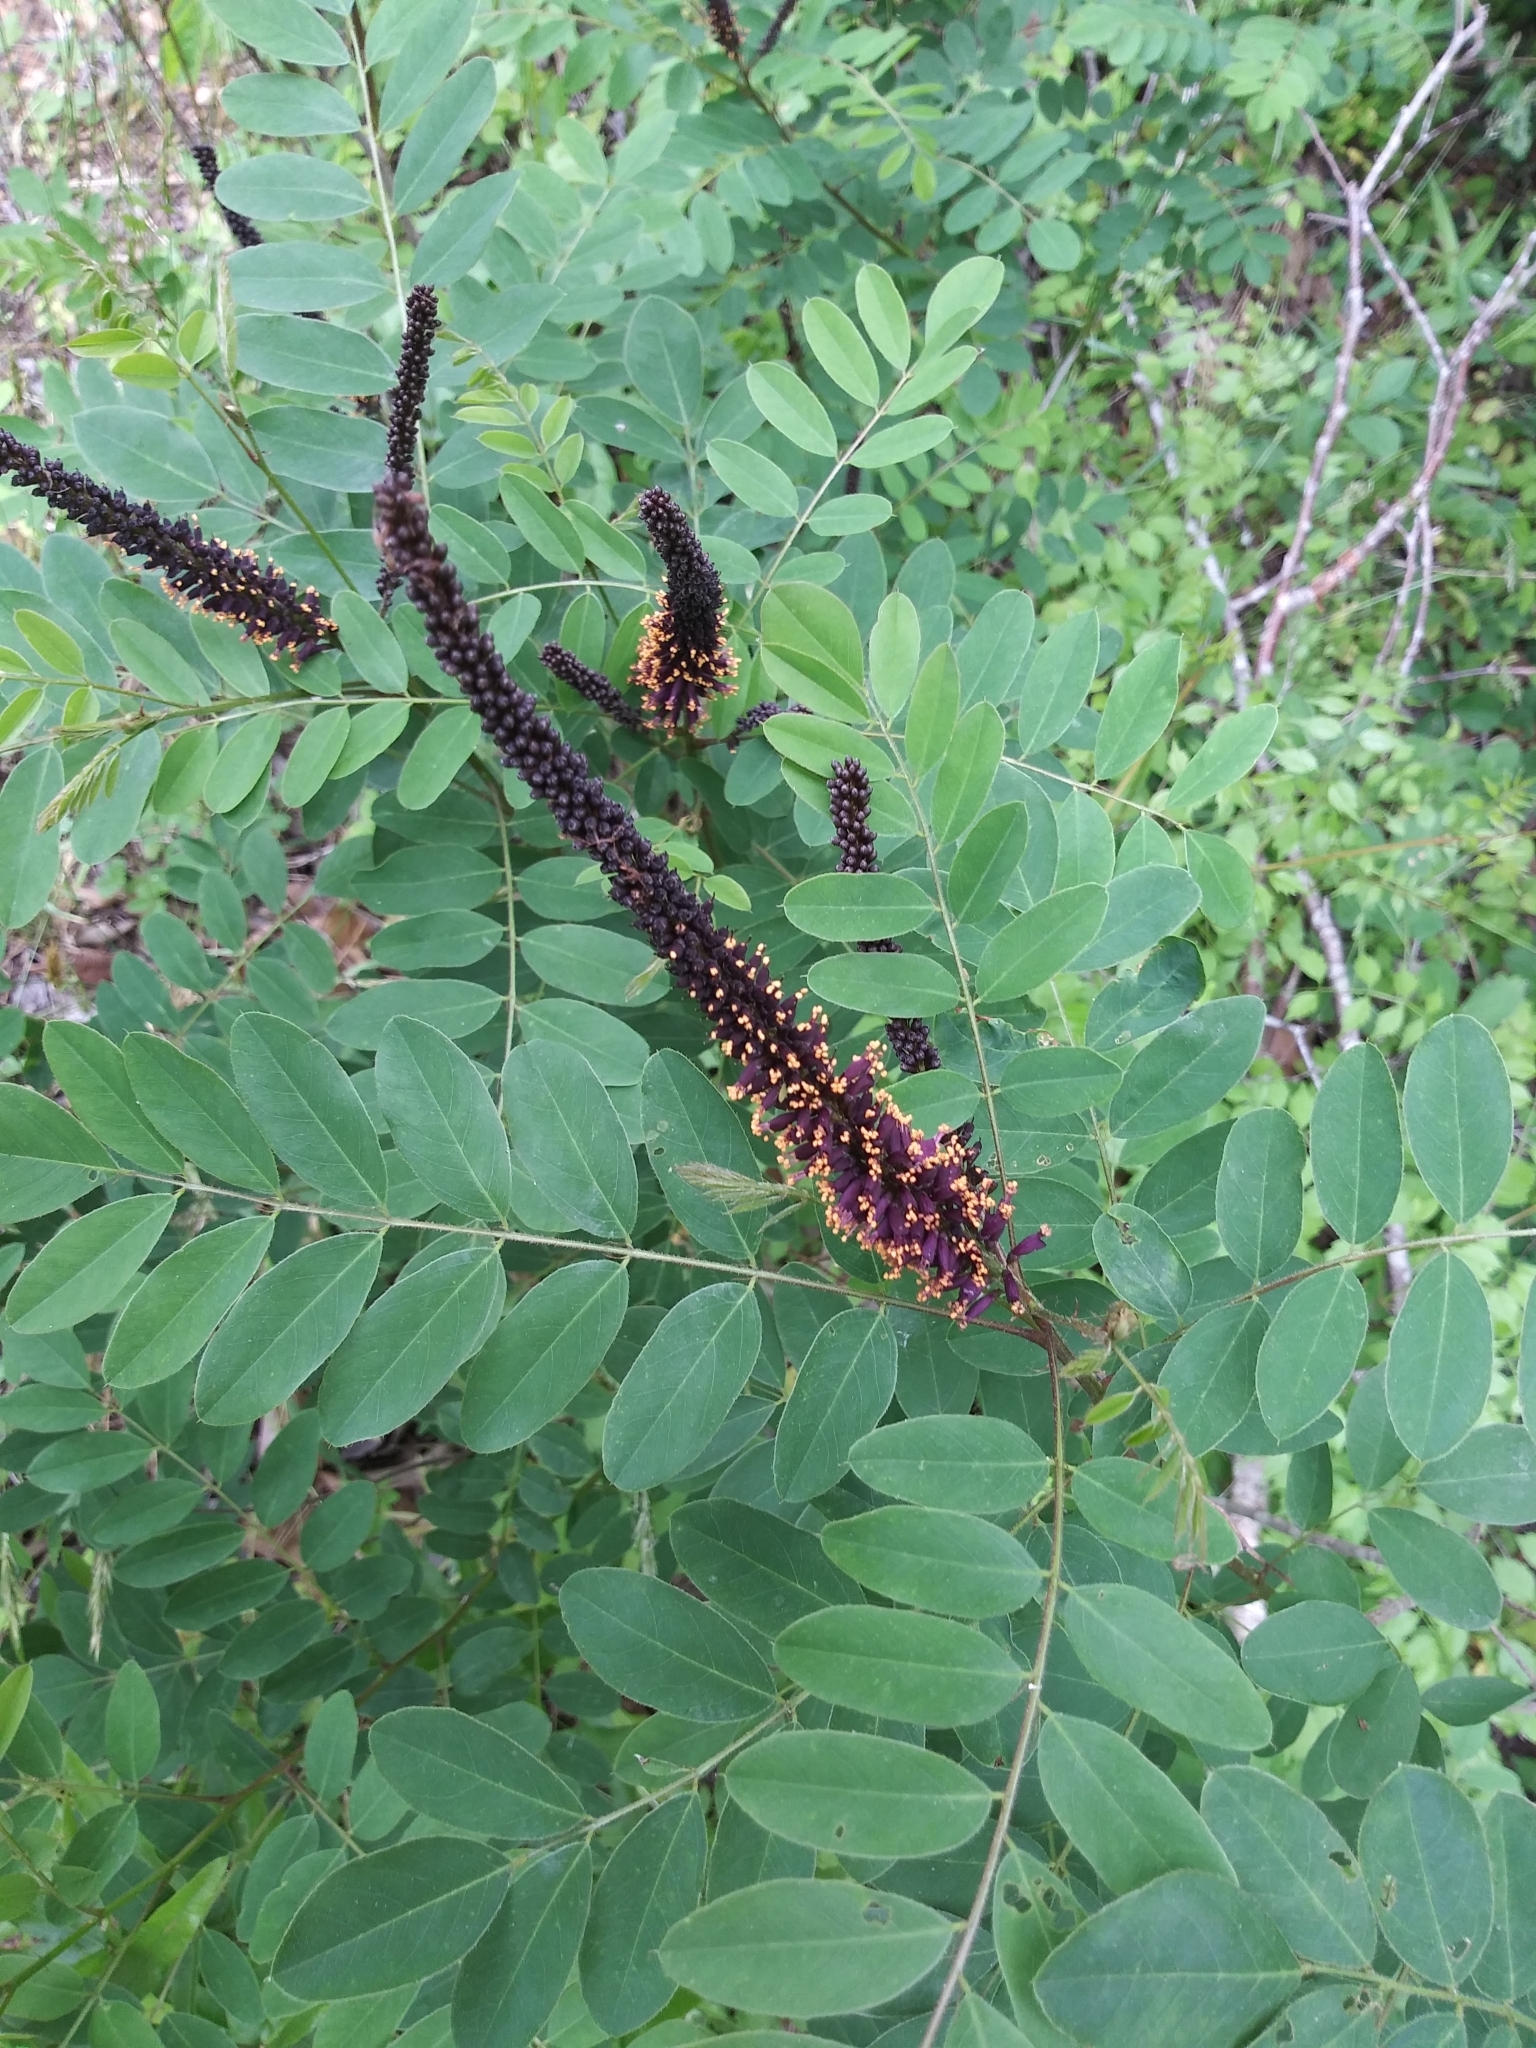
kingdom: Plantae
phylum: Tracheophyta
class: Magnoliopsida
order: Fabales
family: Fabaceae
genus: Amorpha
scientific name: Amorpha fruticosa
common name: False indigo
